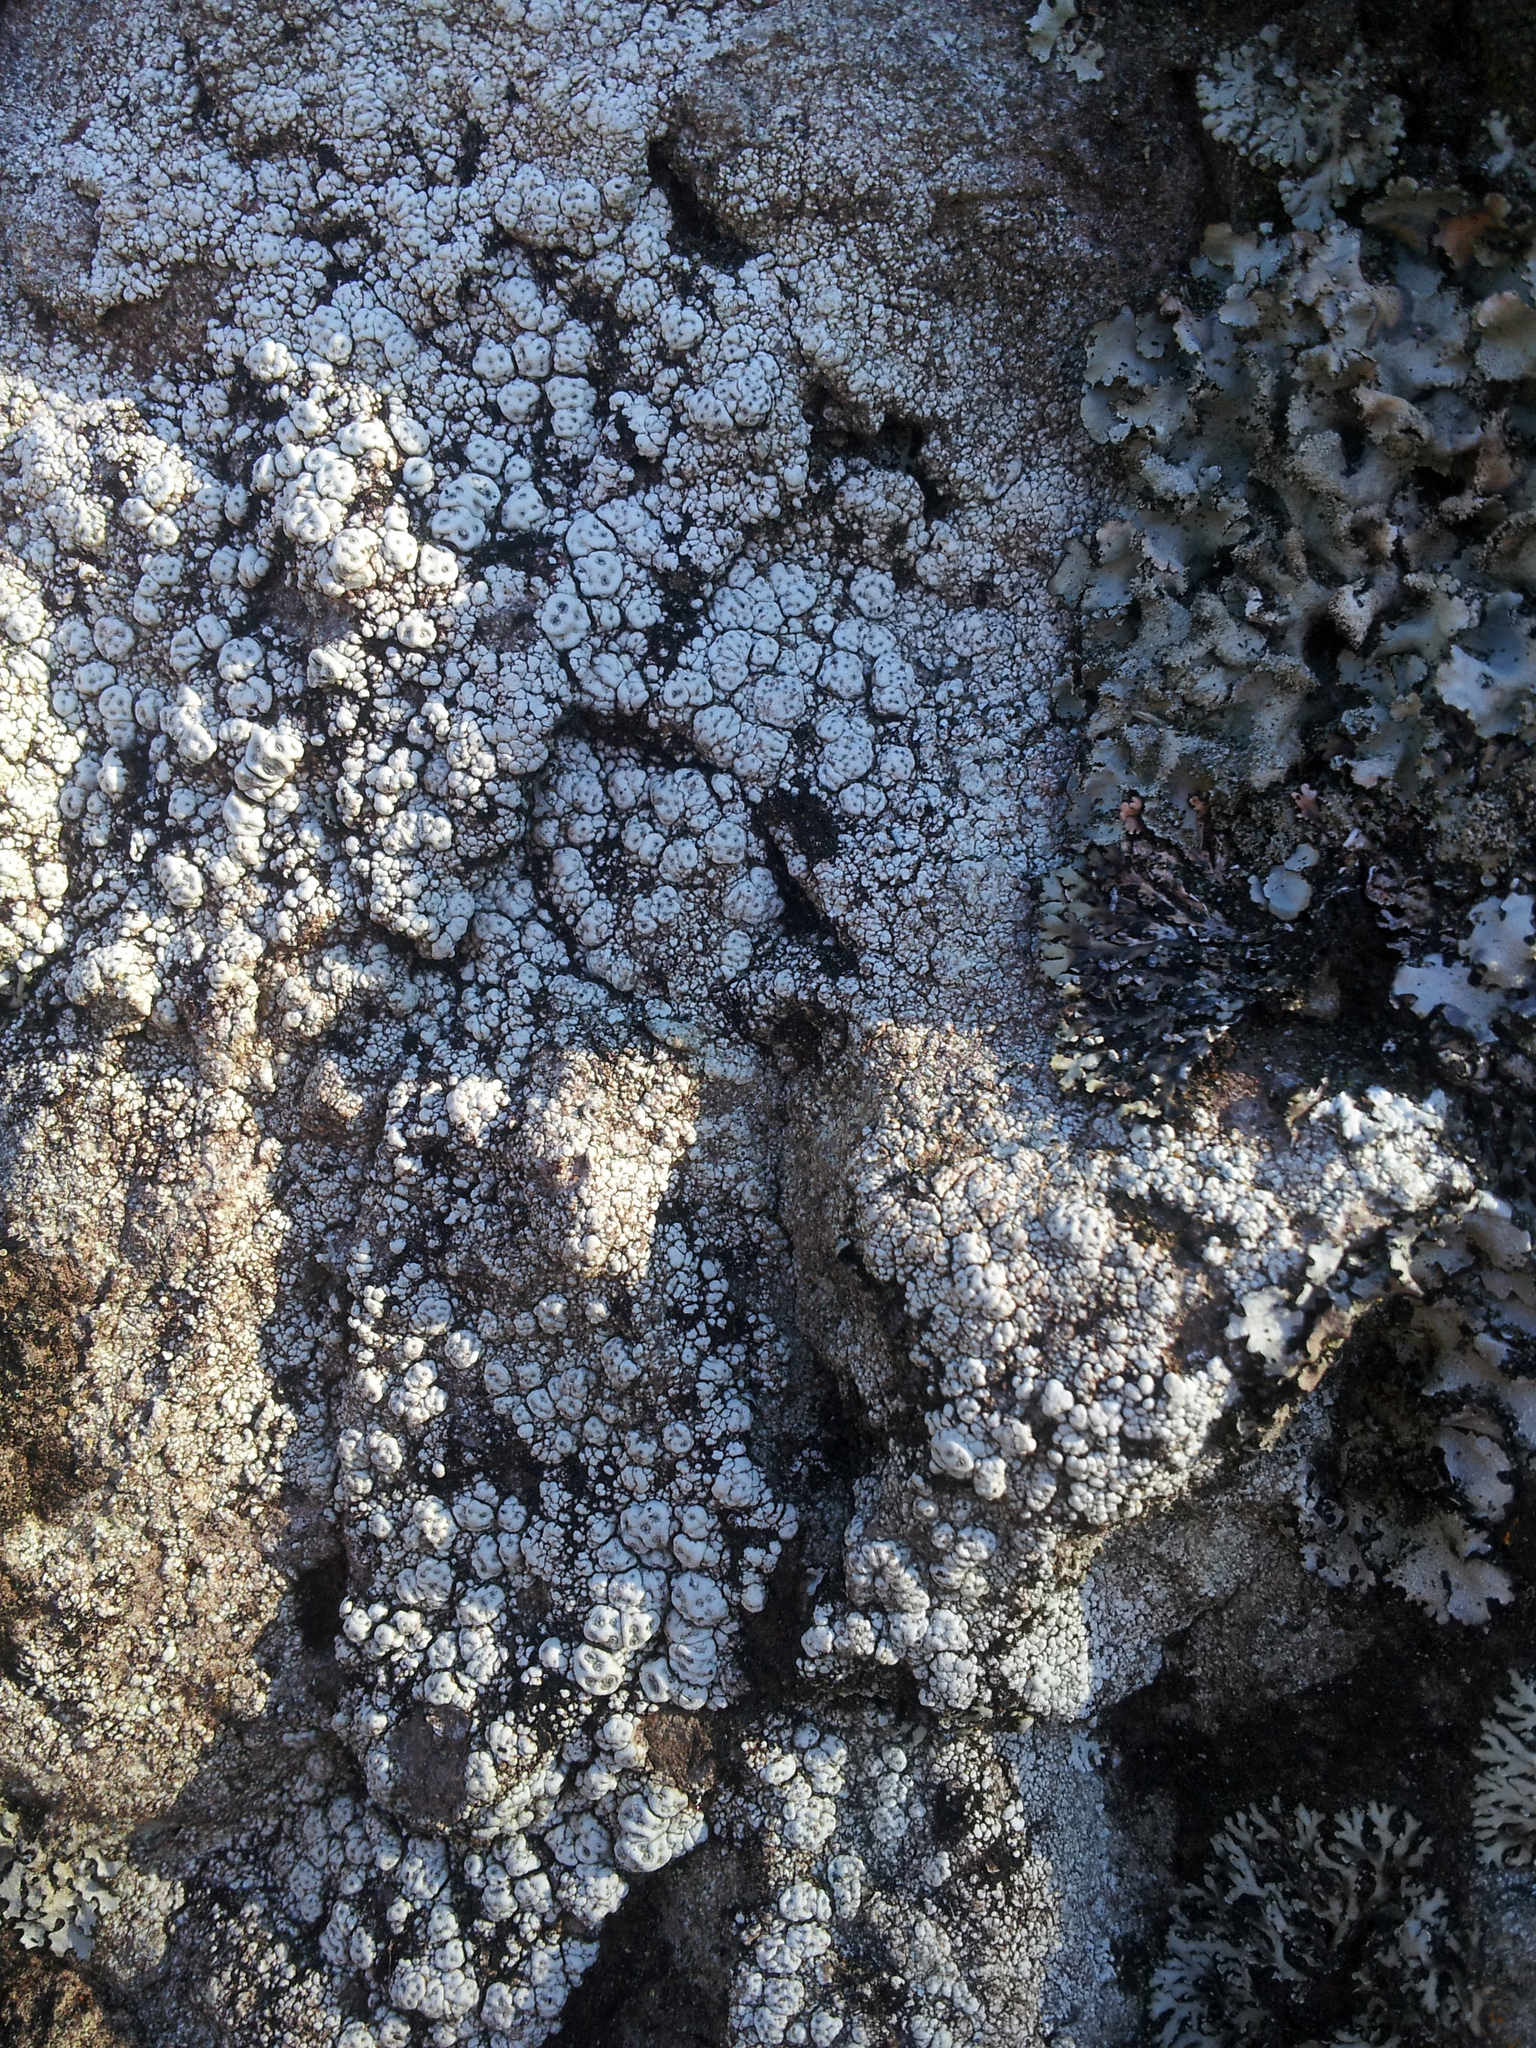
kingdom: Fungi
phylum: Ascomycota
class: Lecanoromycetes
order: Pertusariales
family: Pertusariaceae
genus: Pertusaria
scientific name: Pertusaria
